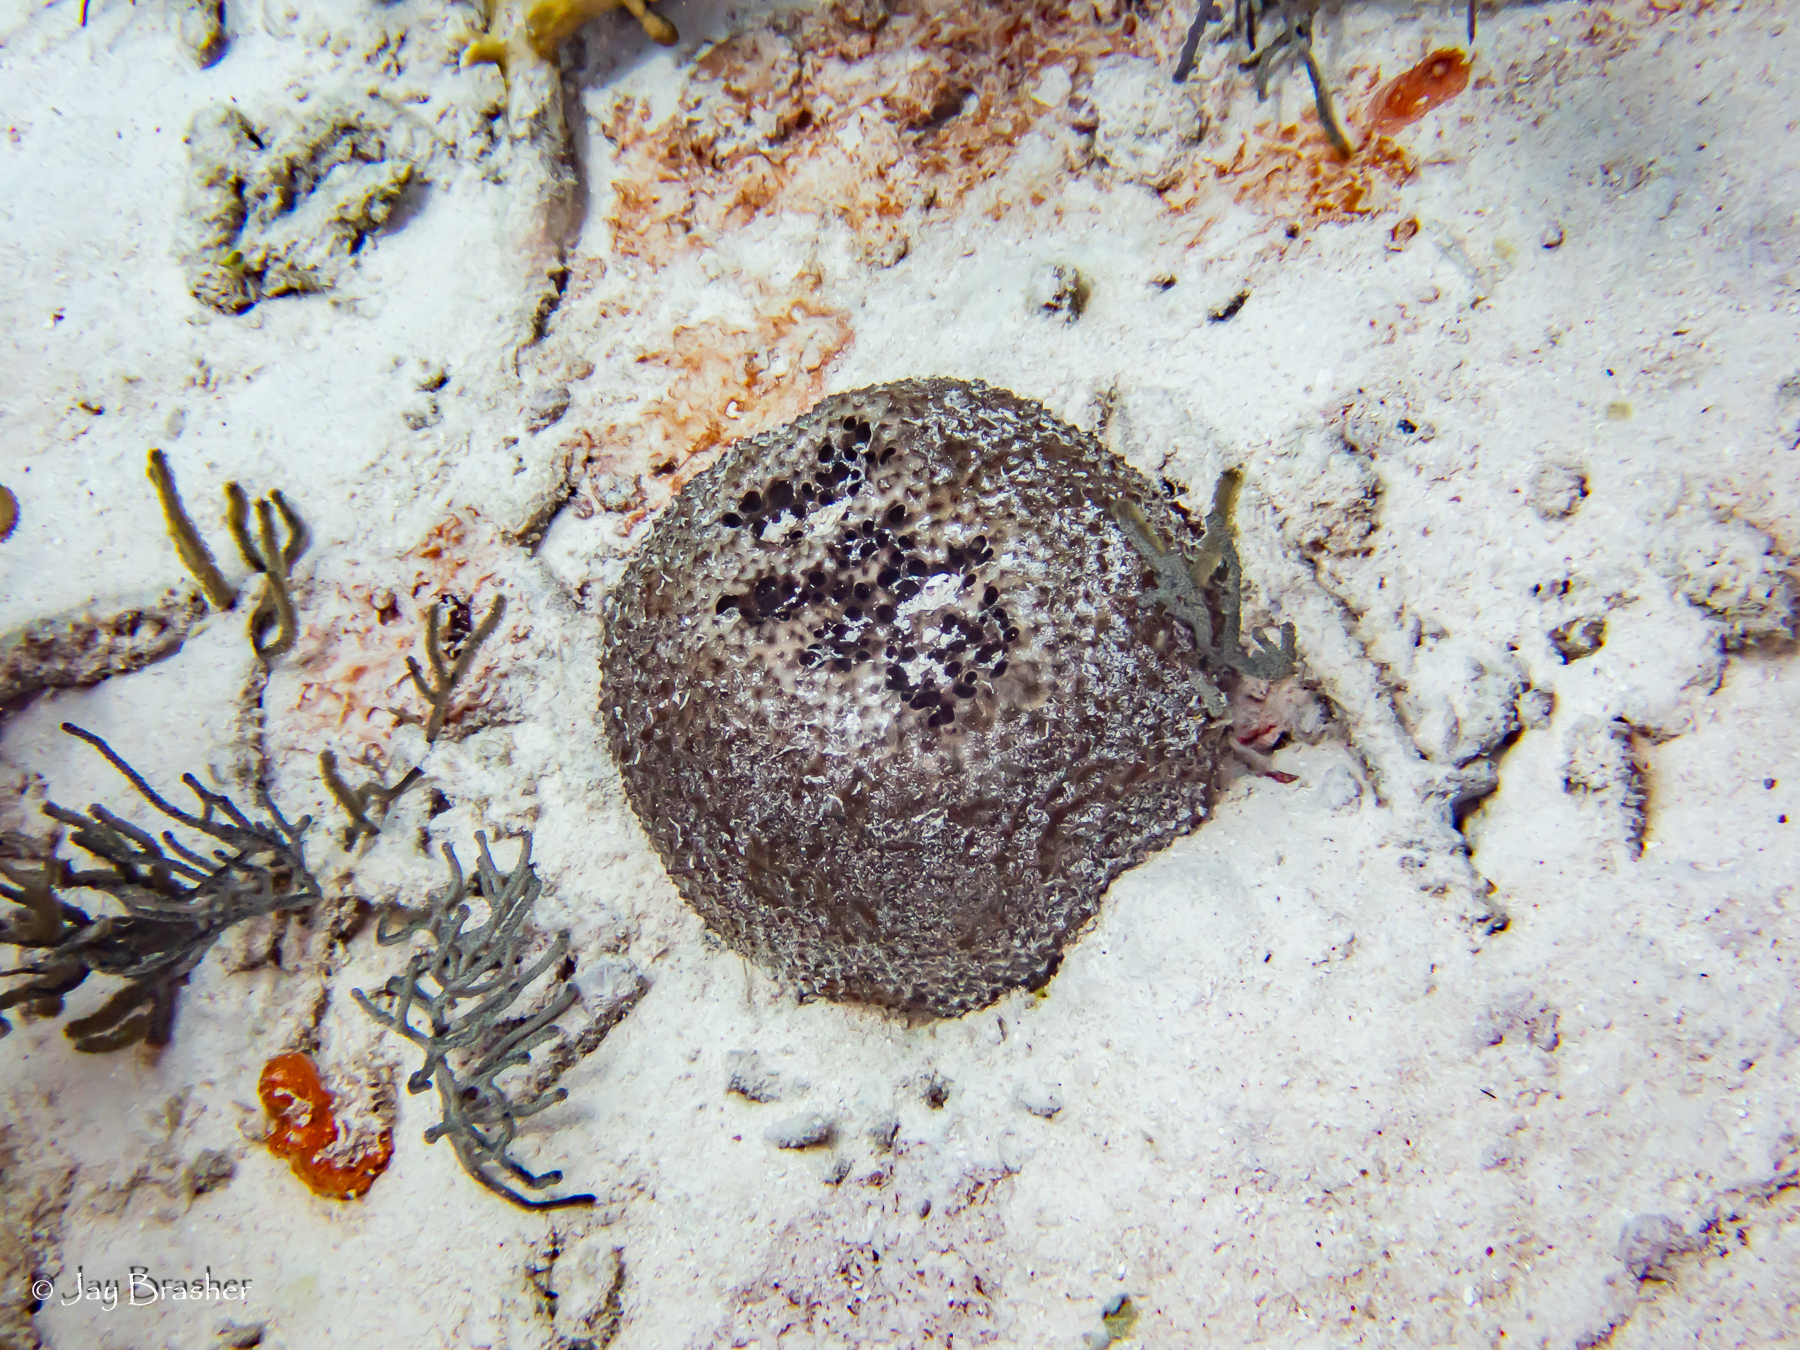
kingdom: Animalia
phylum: Porifera
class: Demospongiae
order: Dictyoceratida
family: Irciniidae
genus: Ircinia
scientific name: Ircinia felix
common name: Stinker sponge
